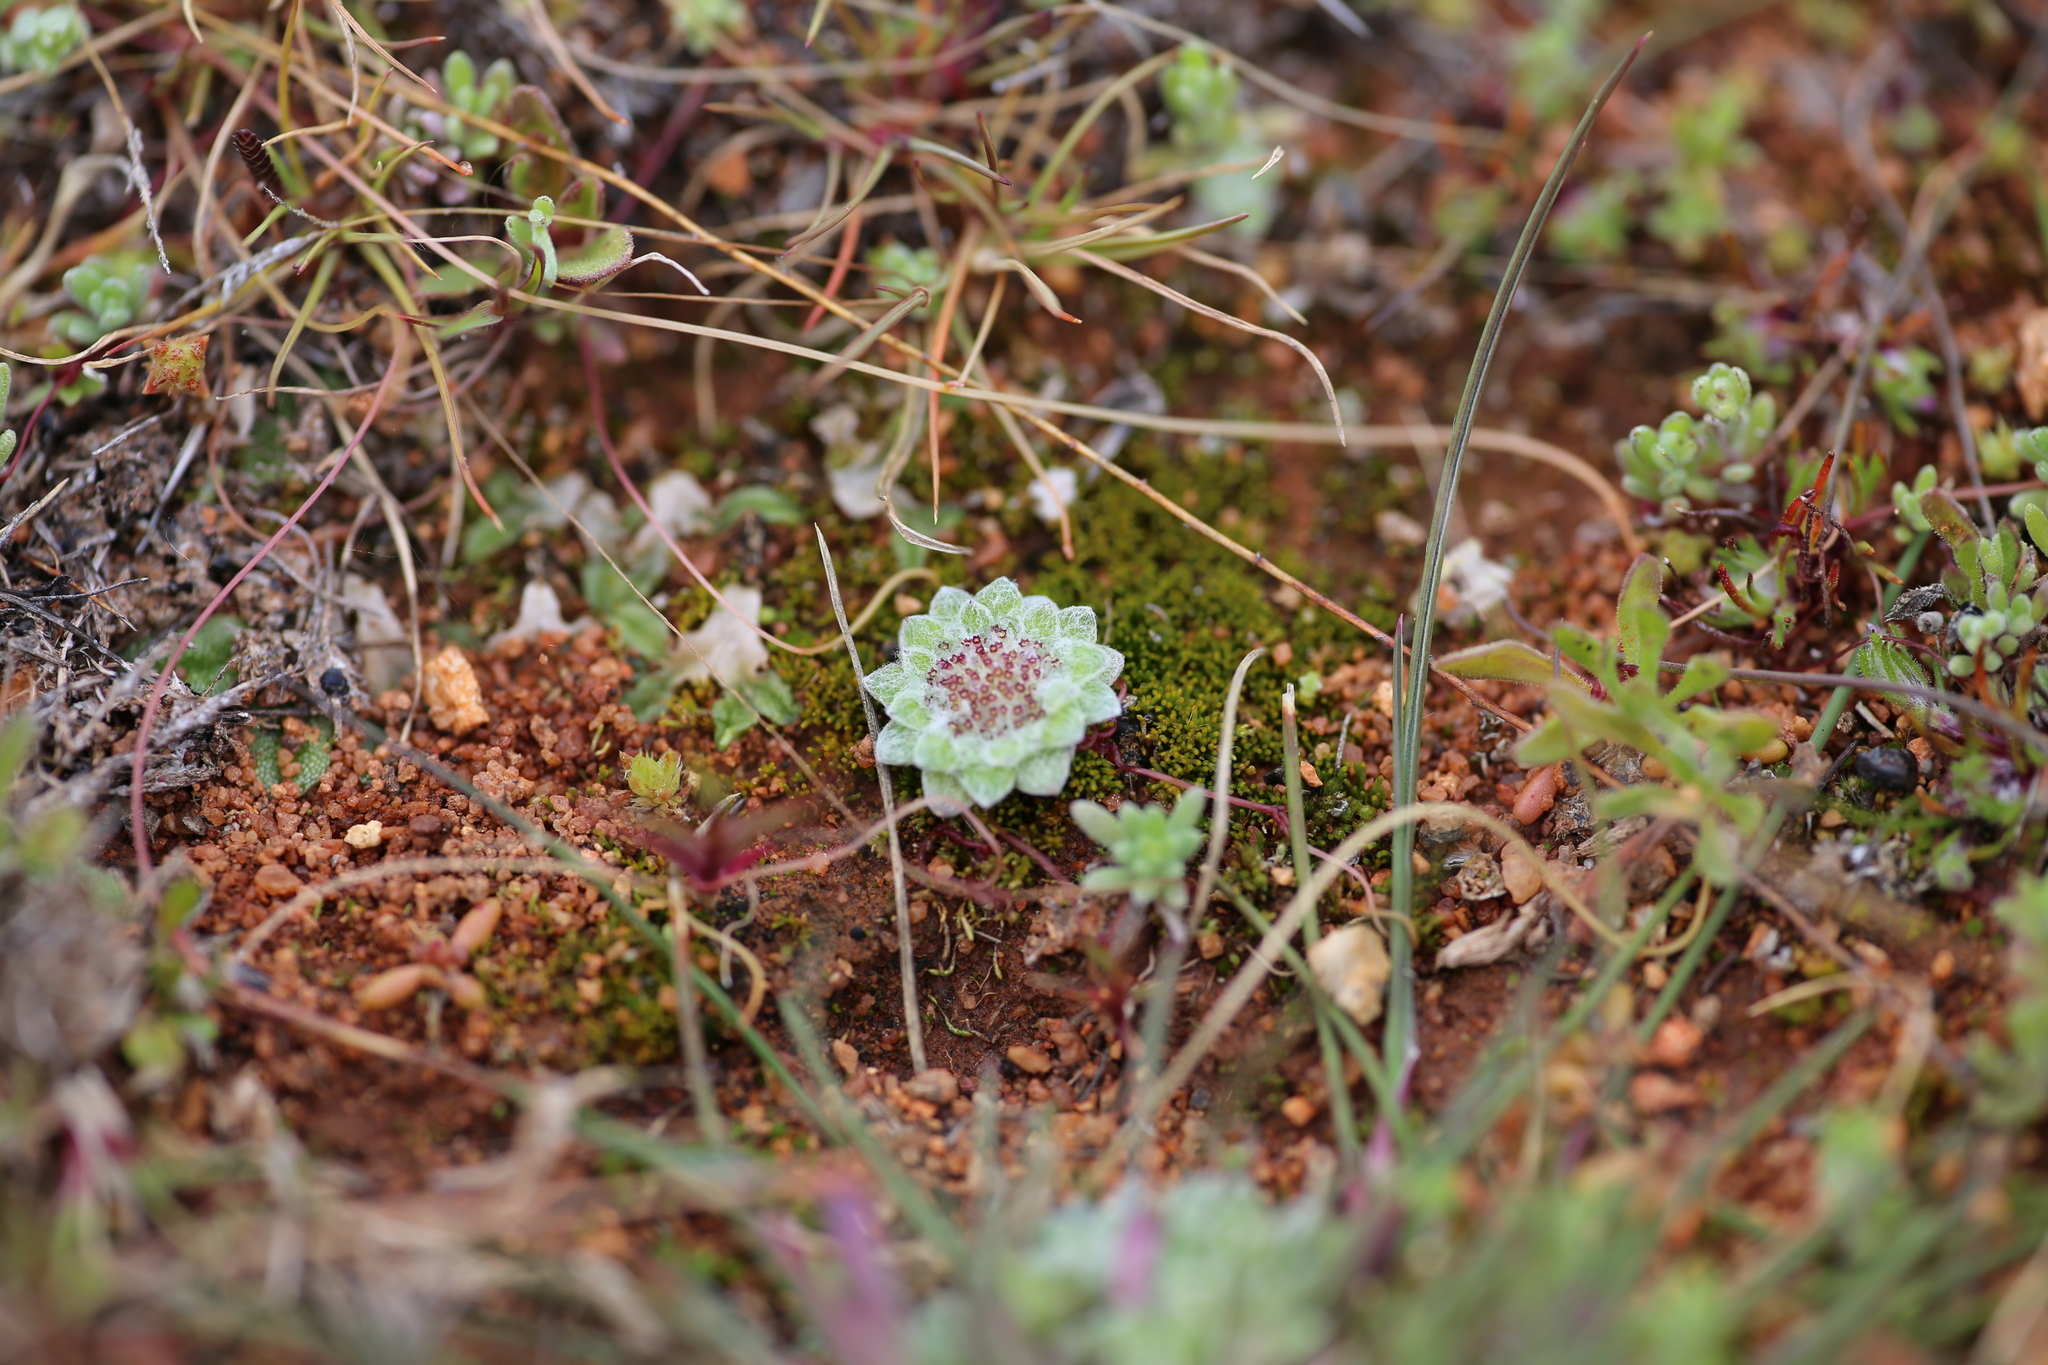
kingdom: Plantae
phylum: Tracheophyta
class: Magnoliopsida
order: Asterales
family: Asteraceae
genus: Chthonocephalus
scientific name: Chthonocephalus pseudevax
